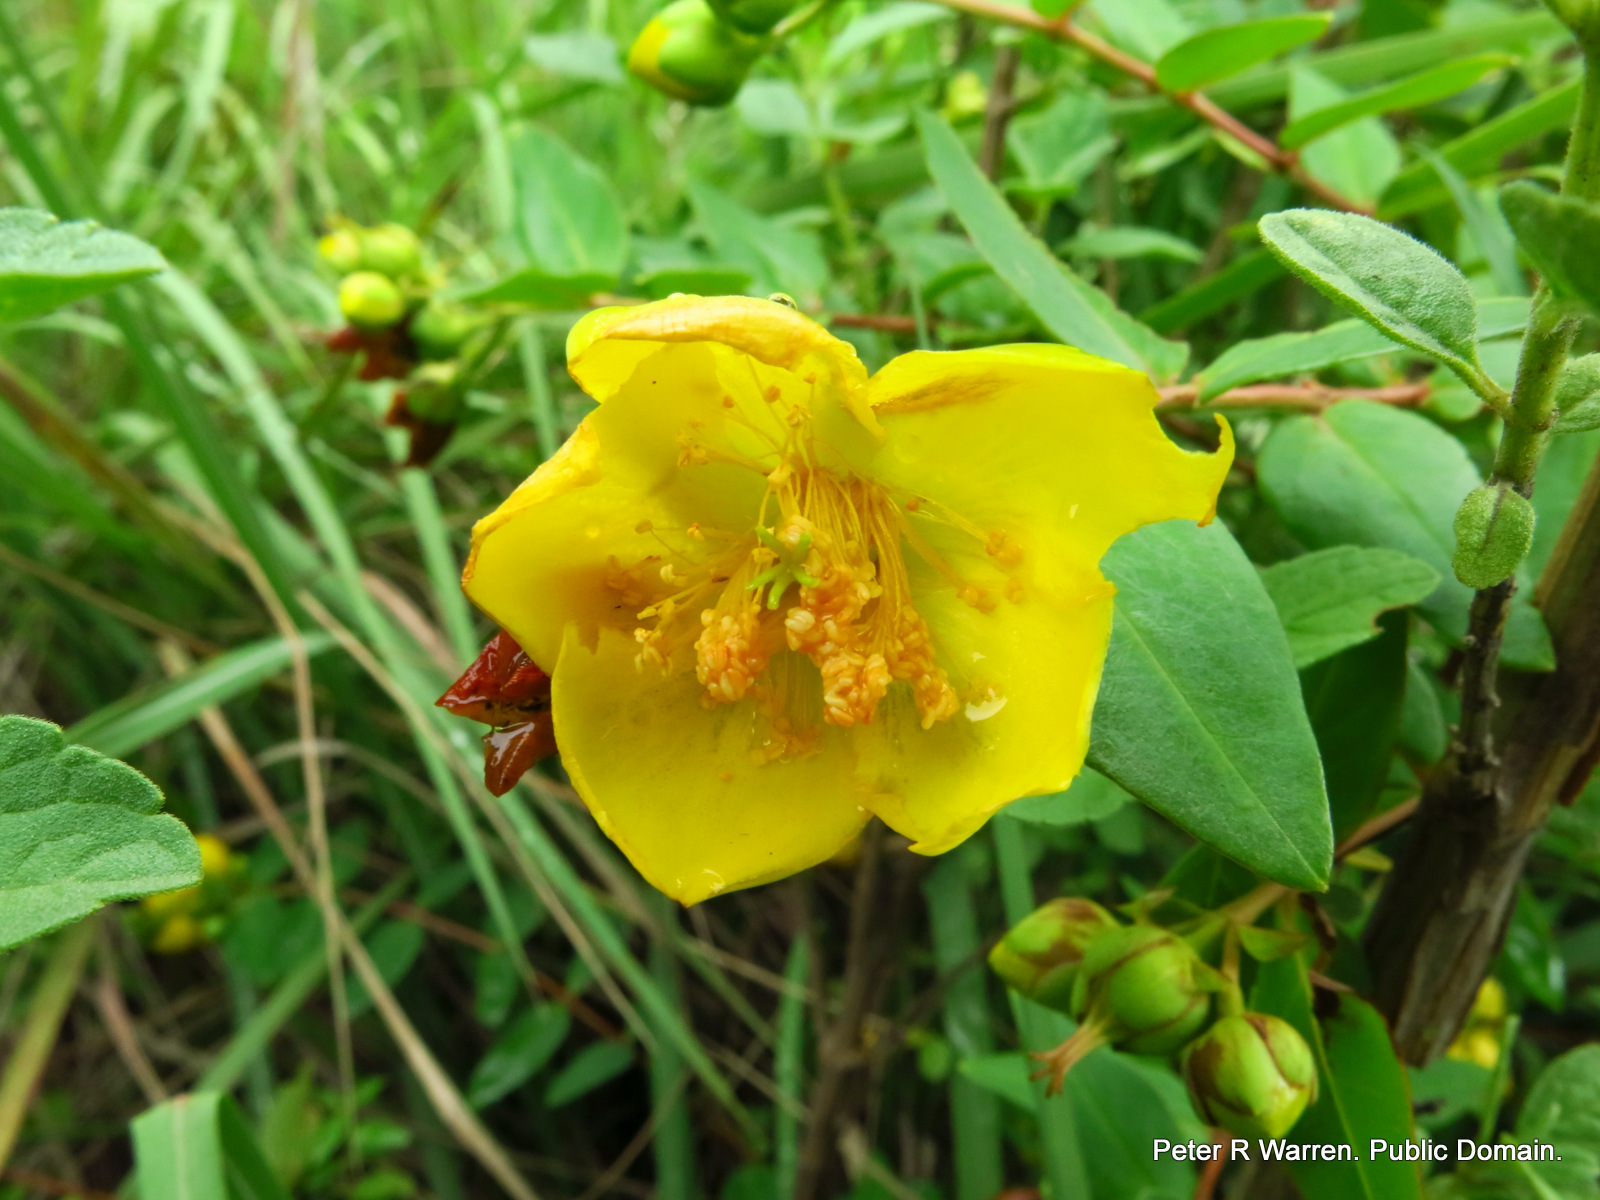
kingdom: Plantae
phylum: Tracheophyta
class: Magnoliopsida
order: Malpighiales
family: Hypericaceae
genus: Hypericum
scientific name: Hypericum forrestii
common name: Forrest's tutsan
